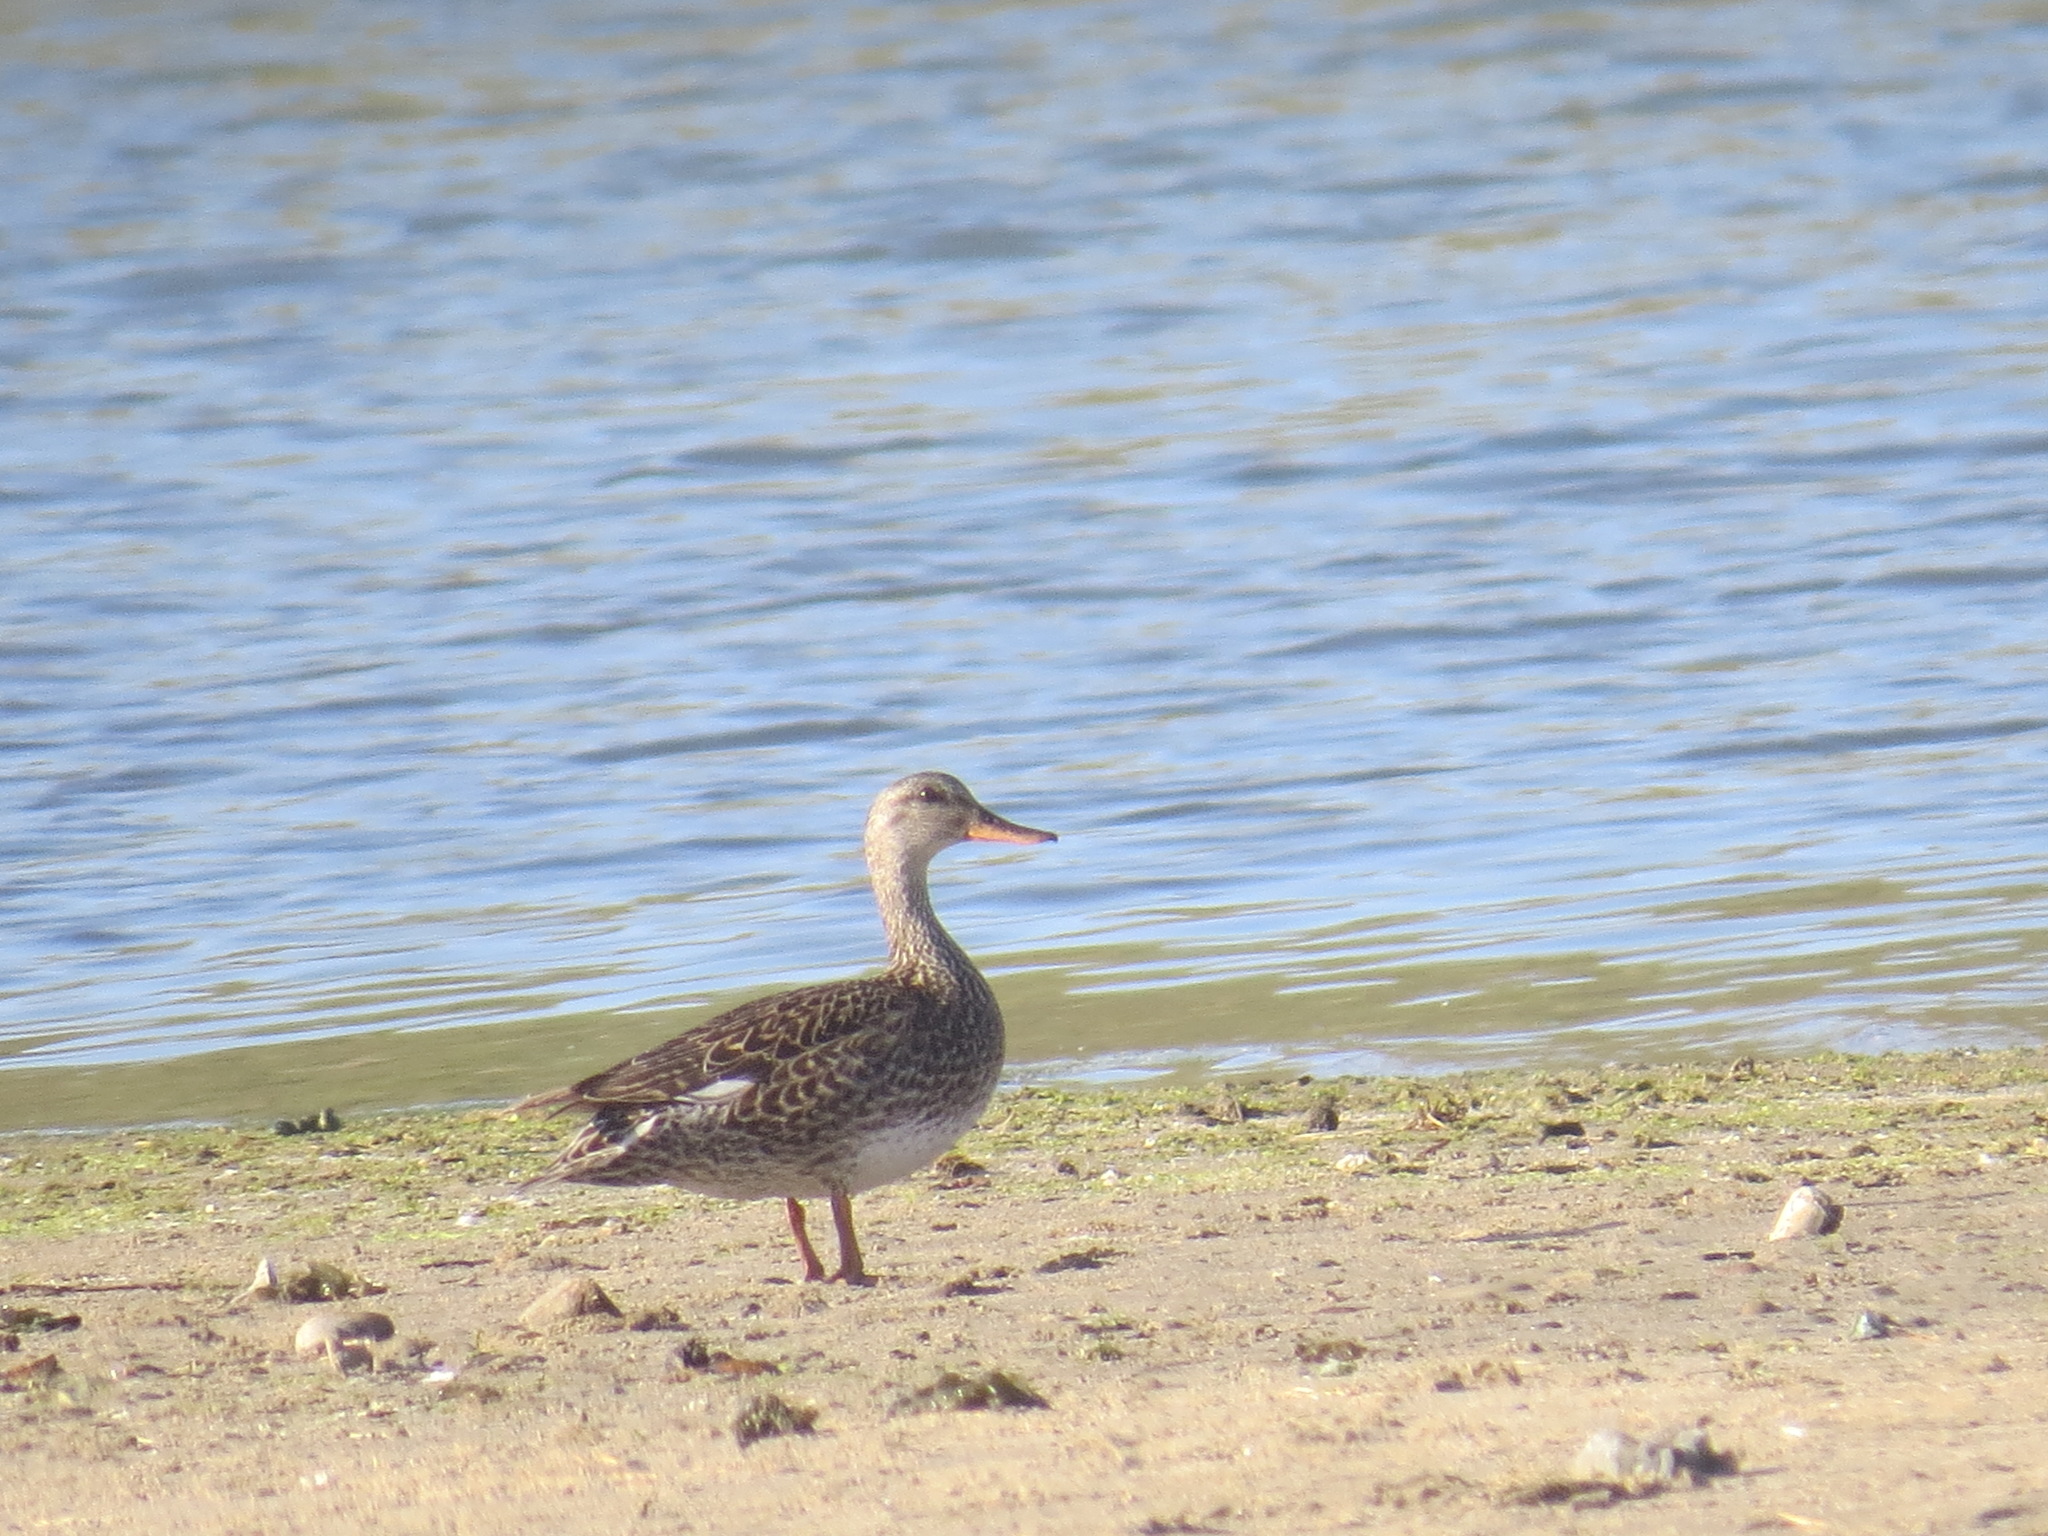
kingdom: Animalia
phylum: Chordata
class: Aves
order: Anseriformes
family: Anatidae
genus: Mareca
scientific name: Mareca strepera
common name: Gadwall
